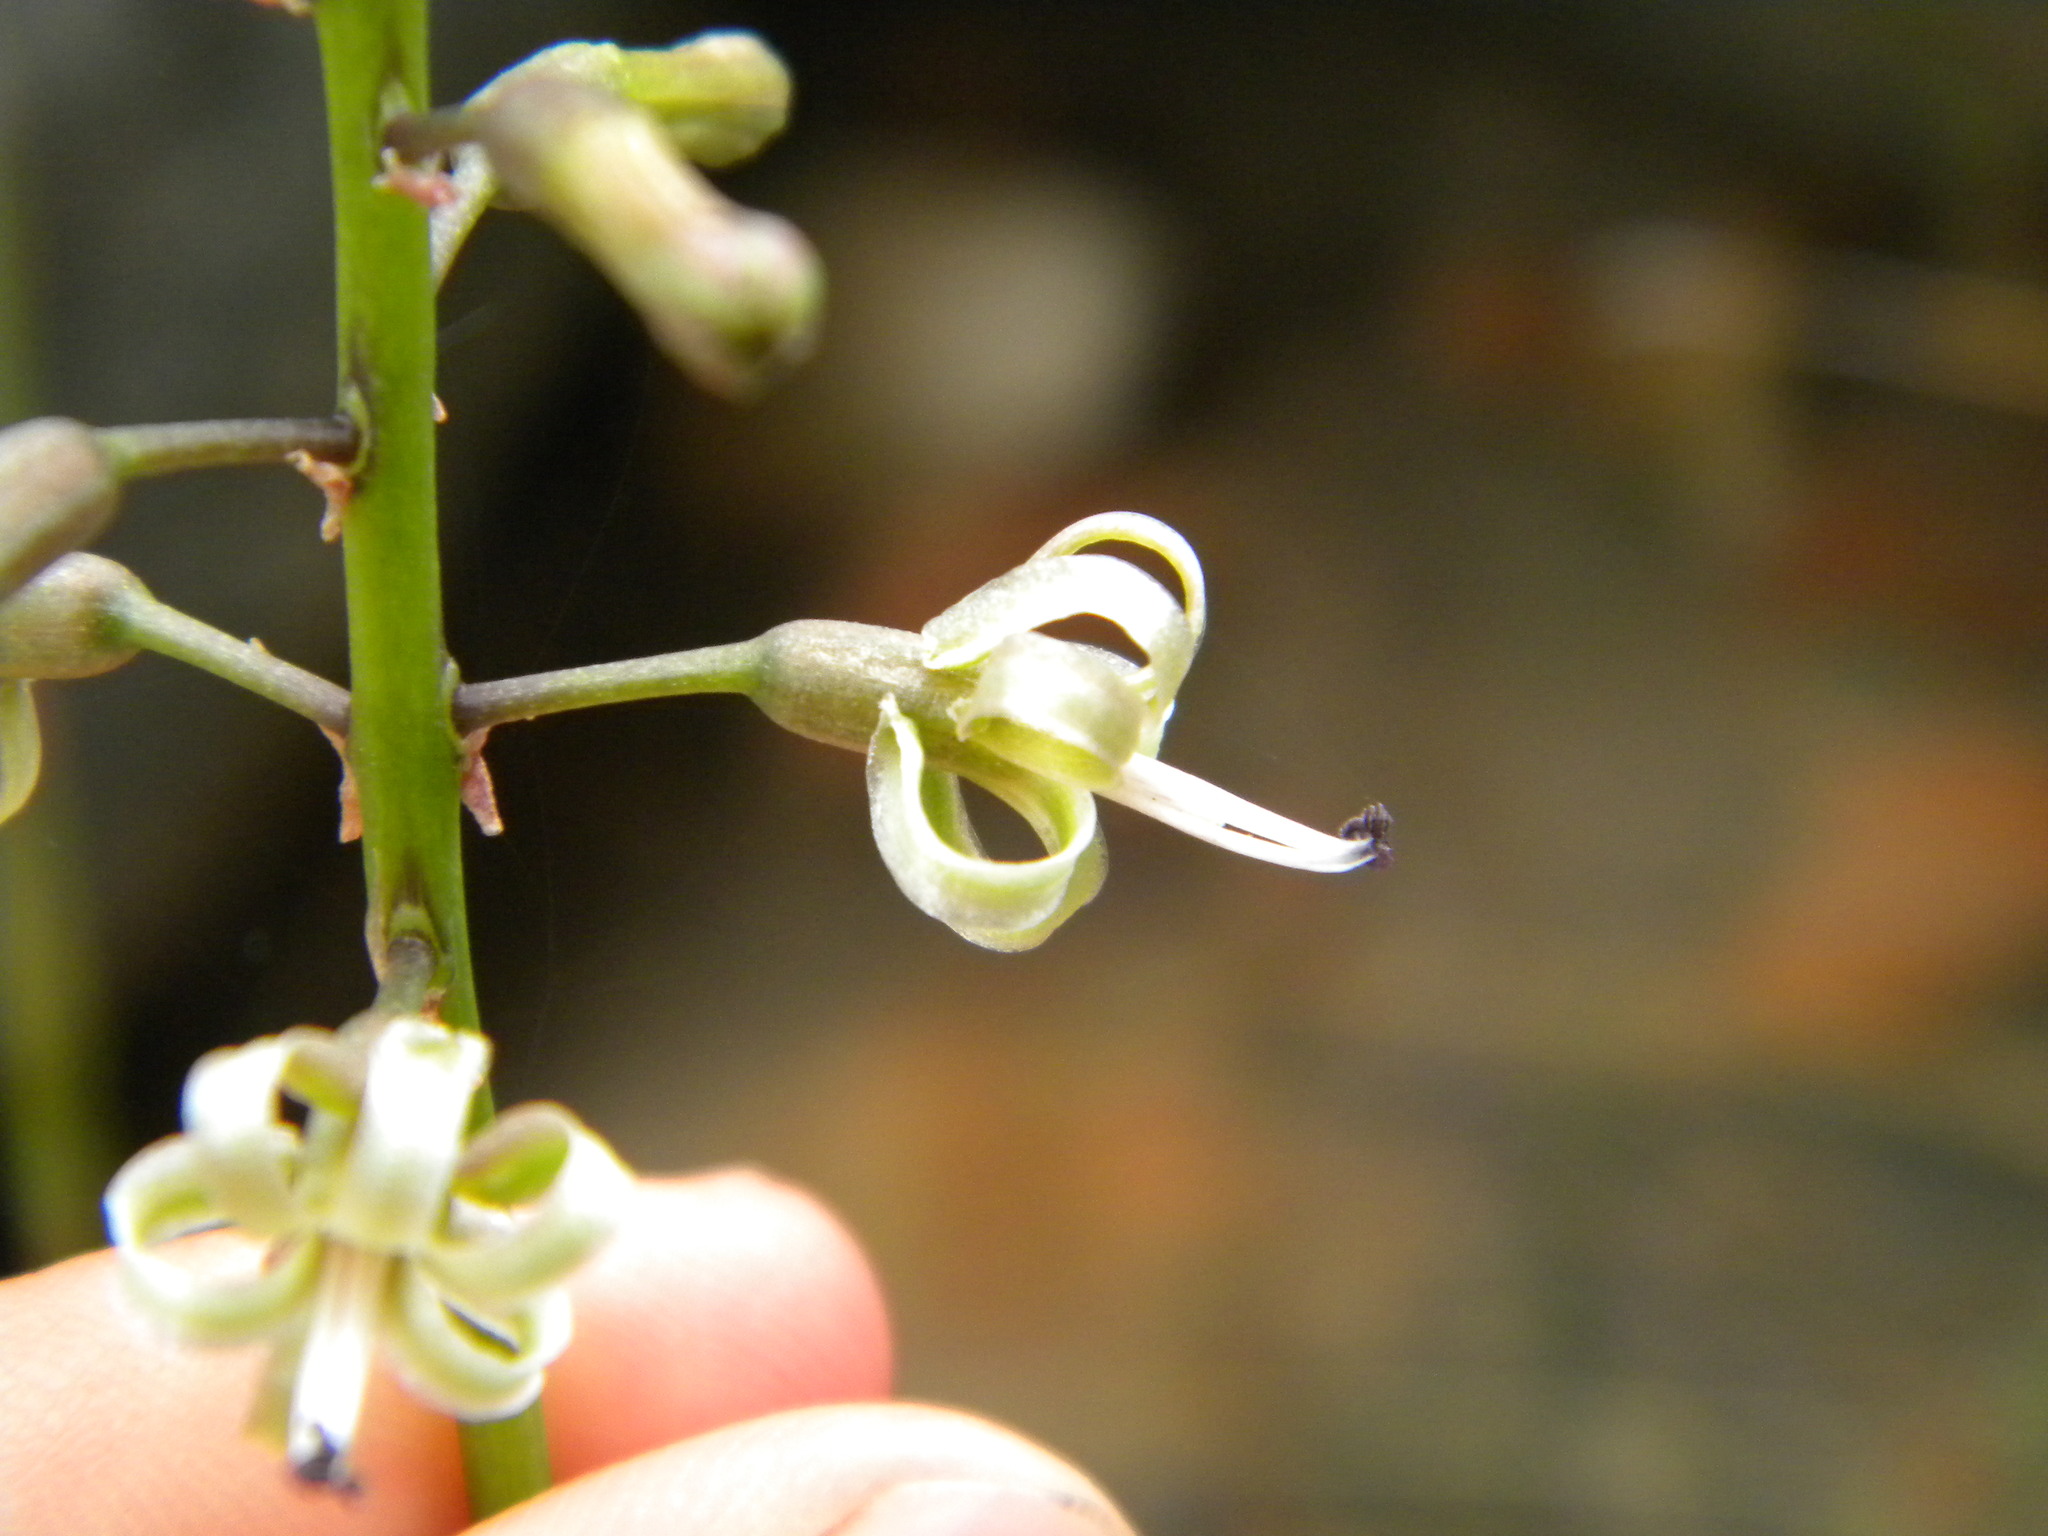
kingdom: Plantae
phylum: Tracheophyta
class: Liliopsida
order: Asparagales
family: Asparagaceae
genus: Drimia
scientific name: Drimia media
